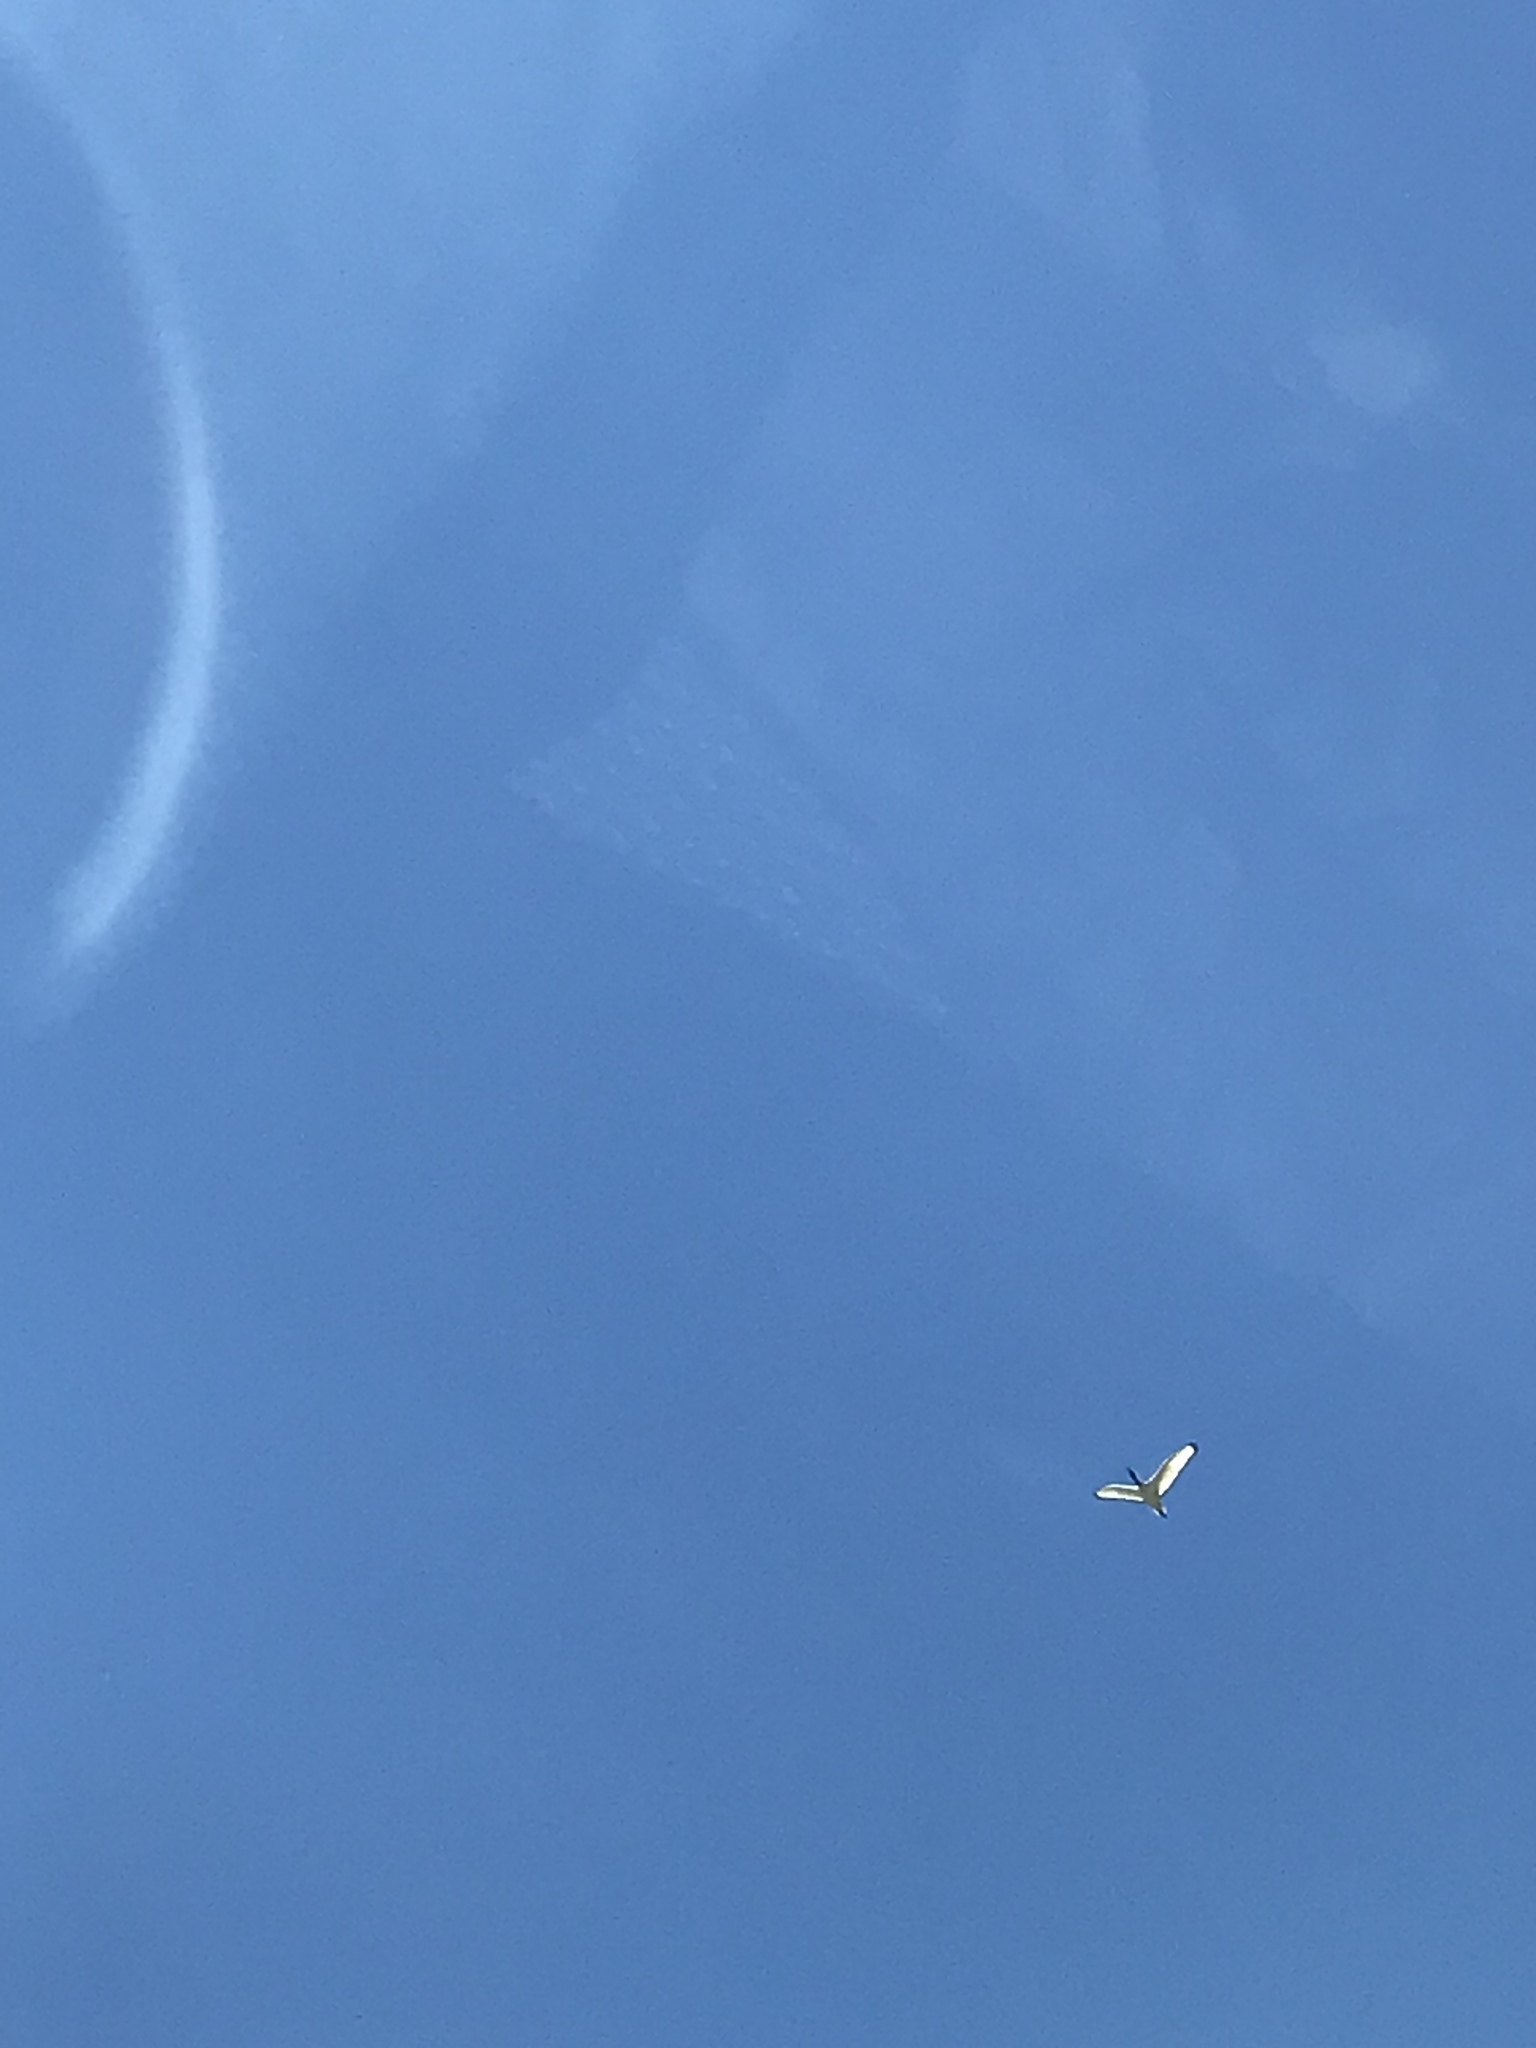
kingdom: Animalia
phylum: Chordata
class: Aves
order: Pelecaniformes
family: Threskiornithidae
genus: Threskiornis
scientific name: Threskiornis aethiopicus
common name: Sacred ibis
